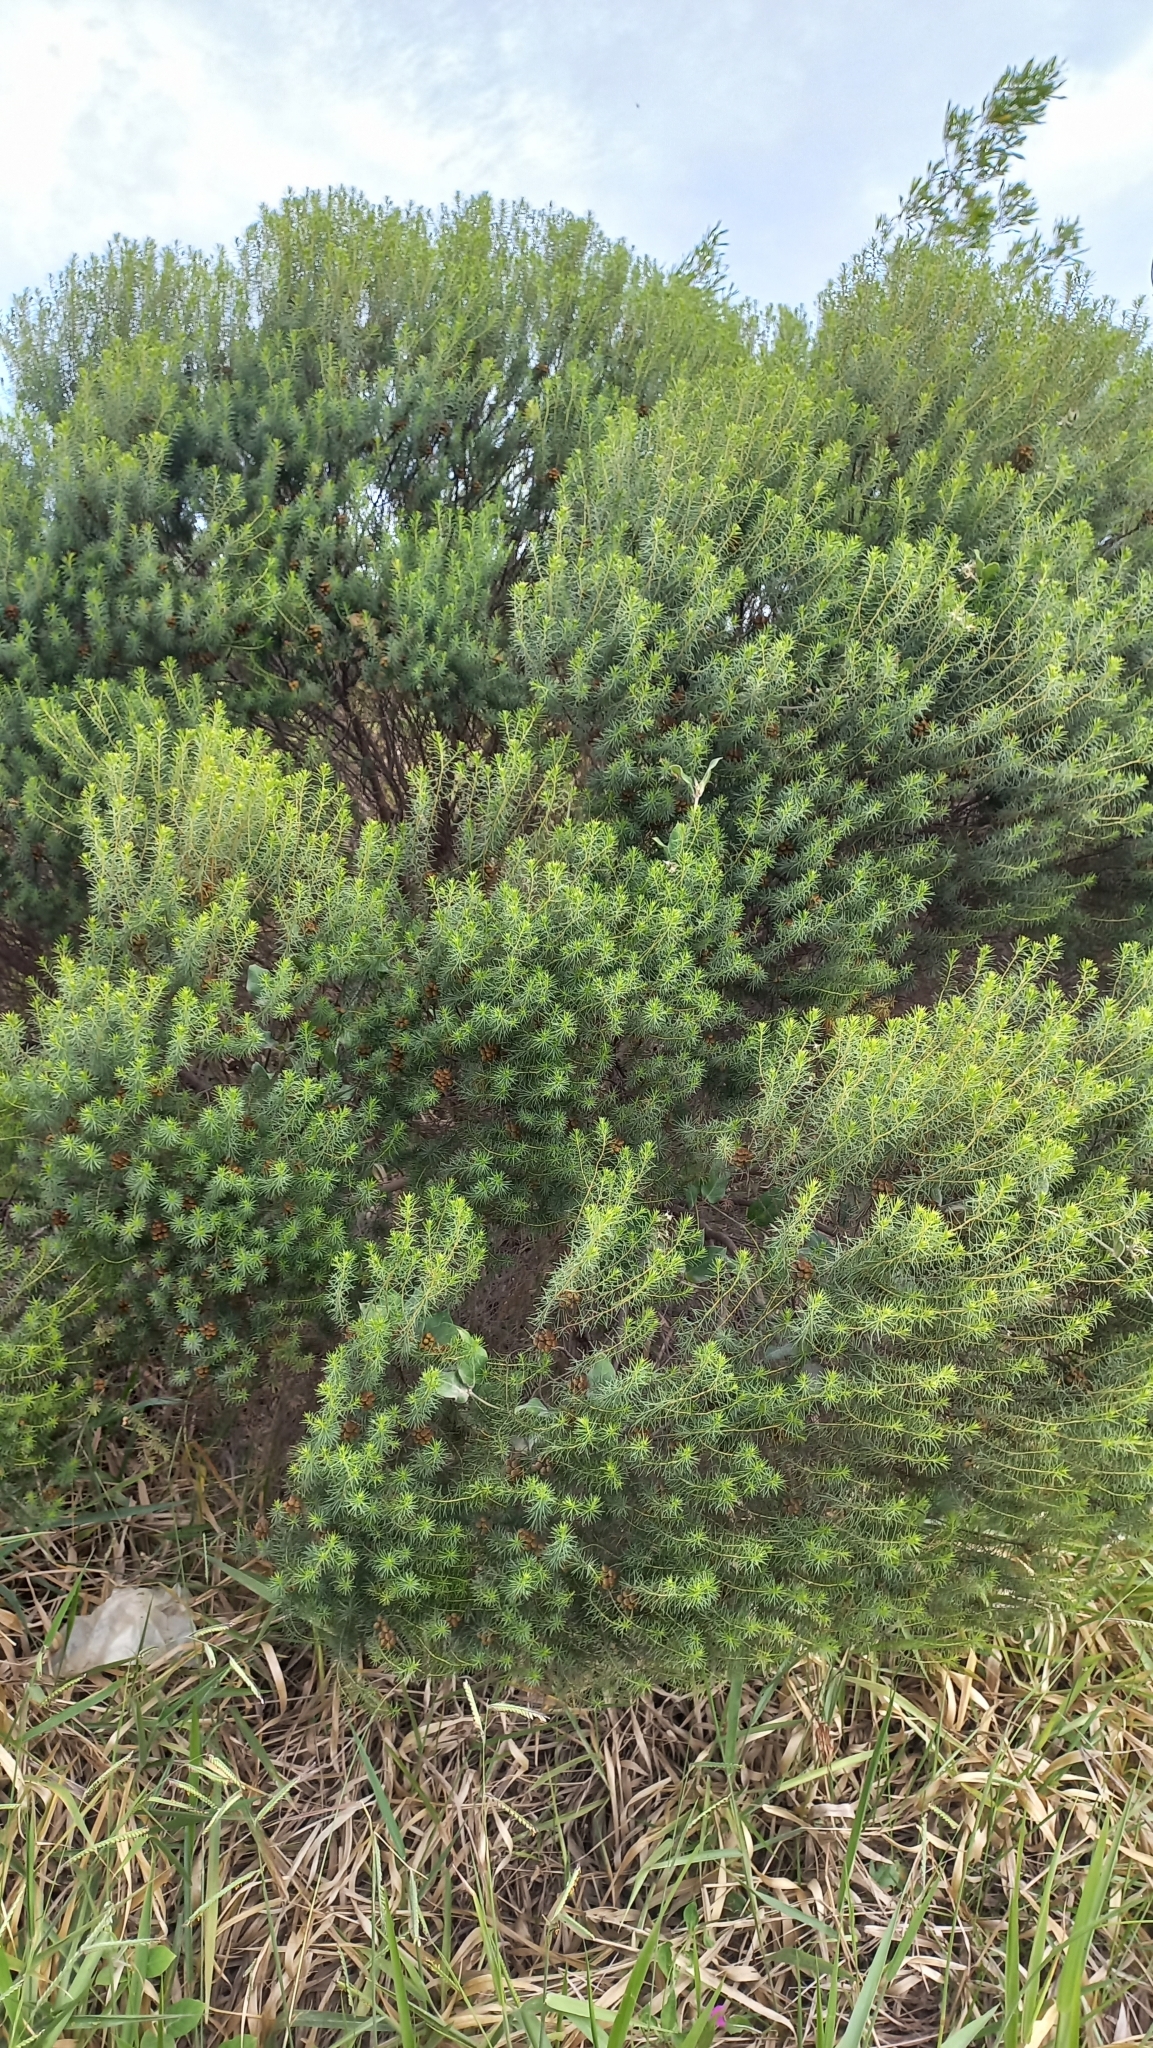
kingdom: Plantae
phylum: Tracheophyta
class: Magnoliopsida
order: Asterales
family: Asteraceae
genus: Baccharis
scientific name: Baccharis aliena
